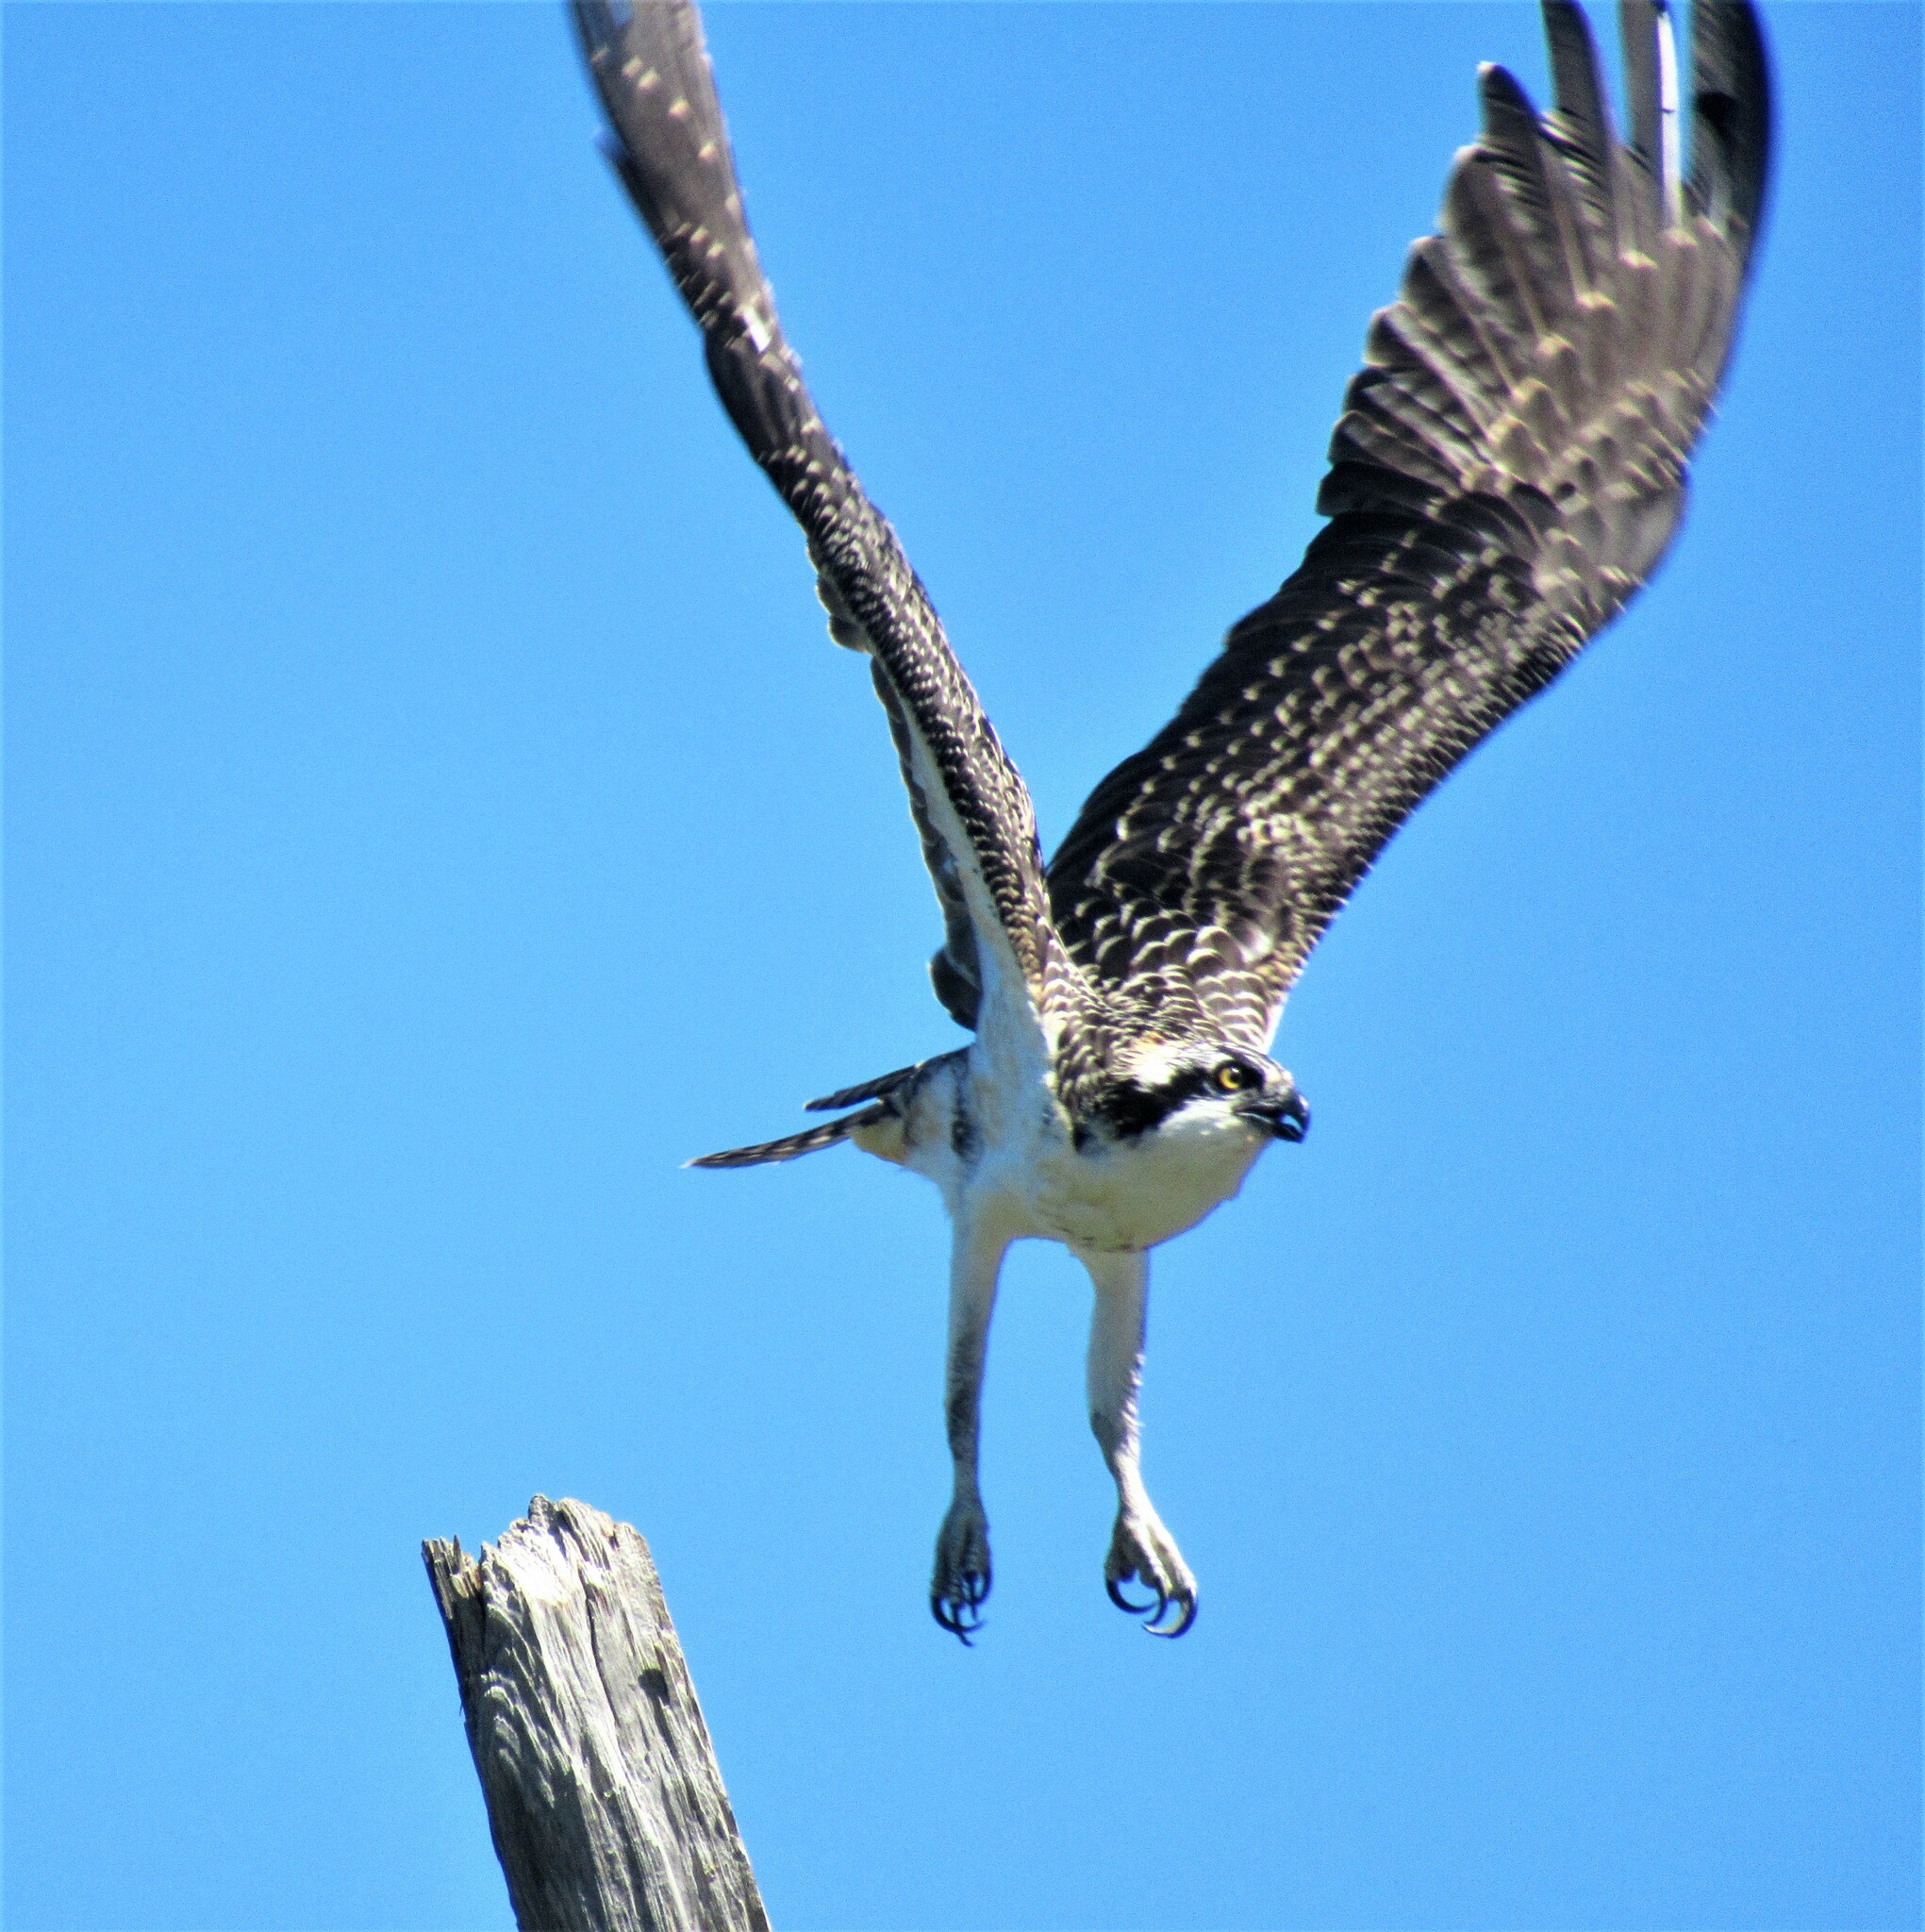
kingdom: Animalia
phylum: Chordata
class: Aves
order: Accipitriformes
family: Pandionidae
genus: Pandion
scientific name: Pandion haliaetus
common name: Osprey
